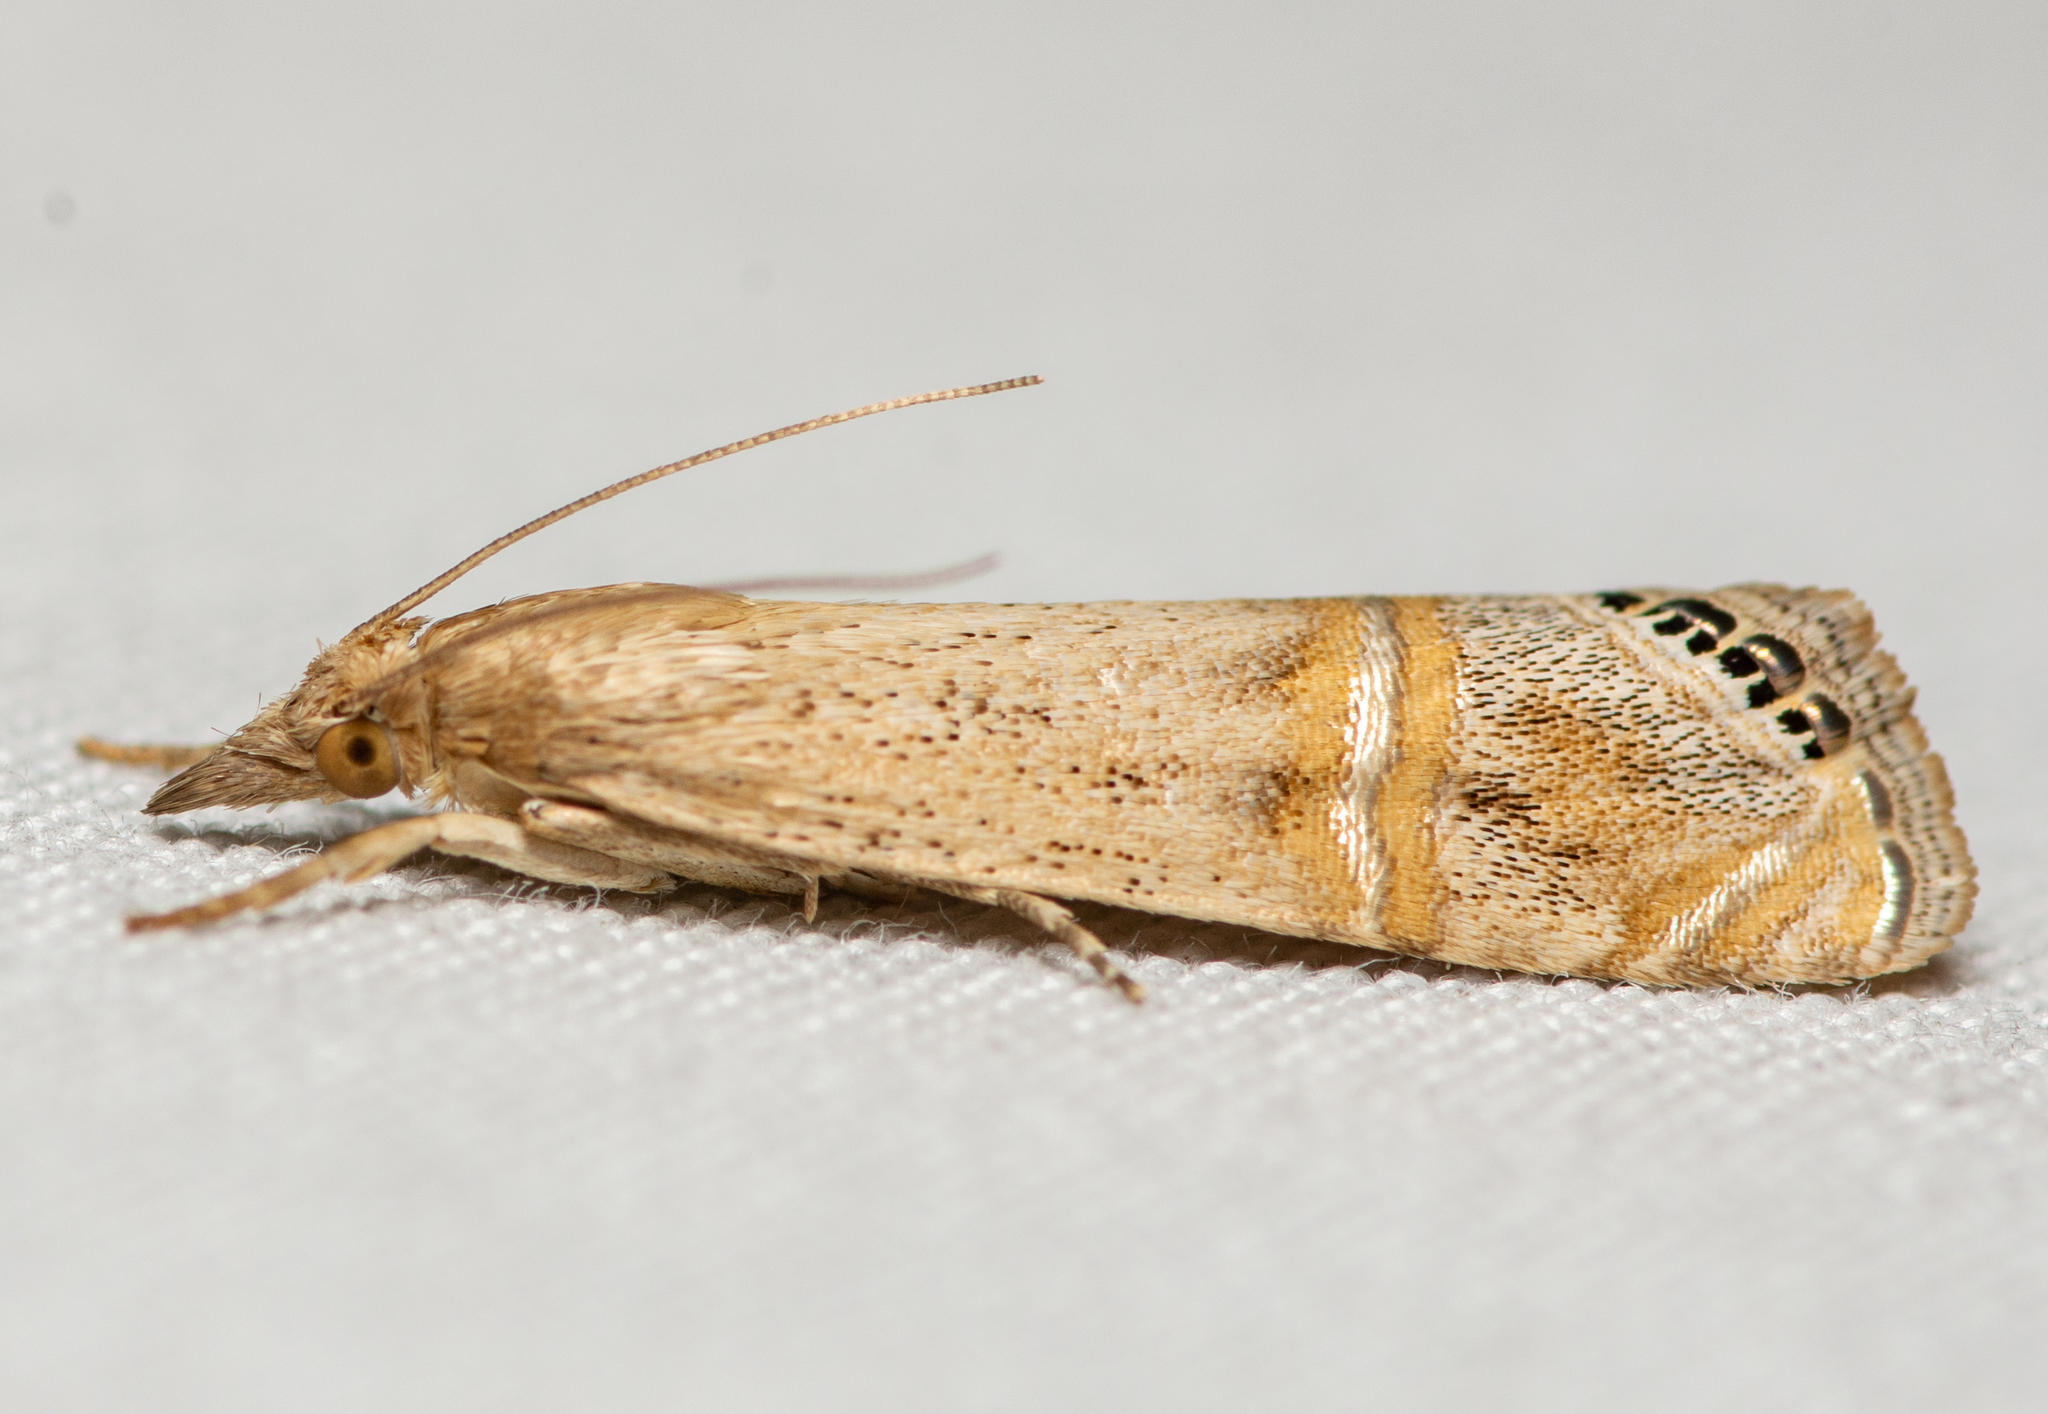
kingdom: Animalia
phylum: Arthropoda
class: Insecta
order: Lepidoptera
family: Crambidae
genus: Euchromius
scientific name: Euchromius ocellea
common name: Necklace veneer moth
